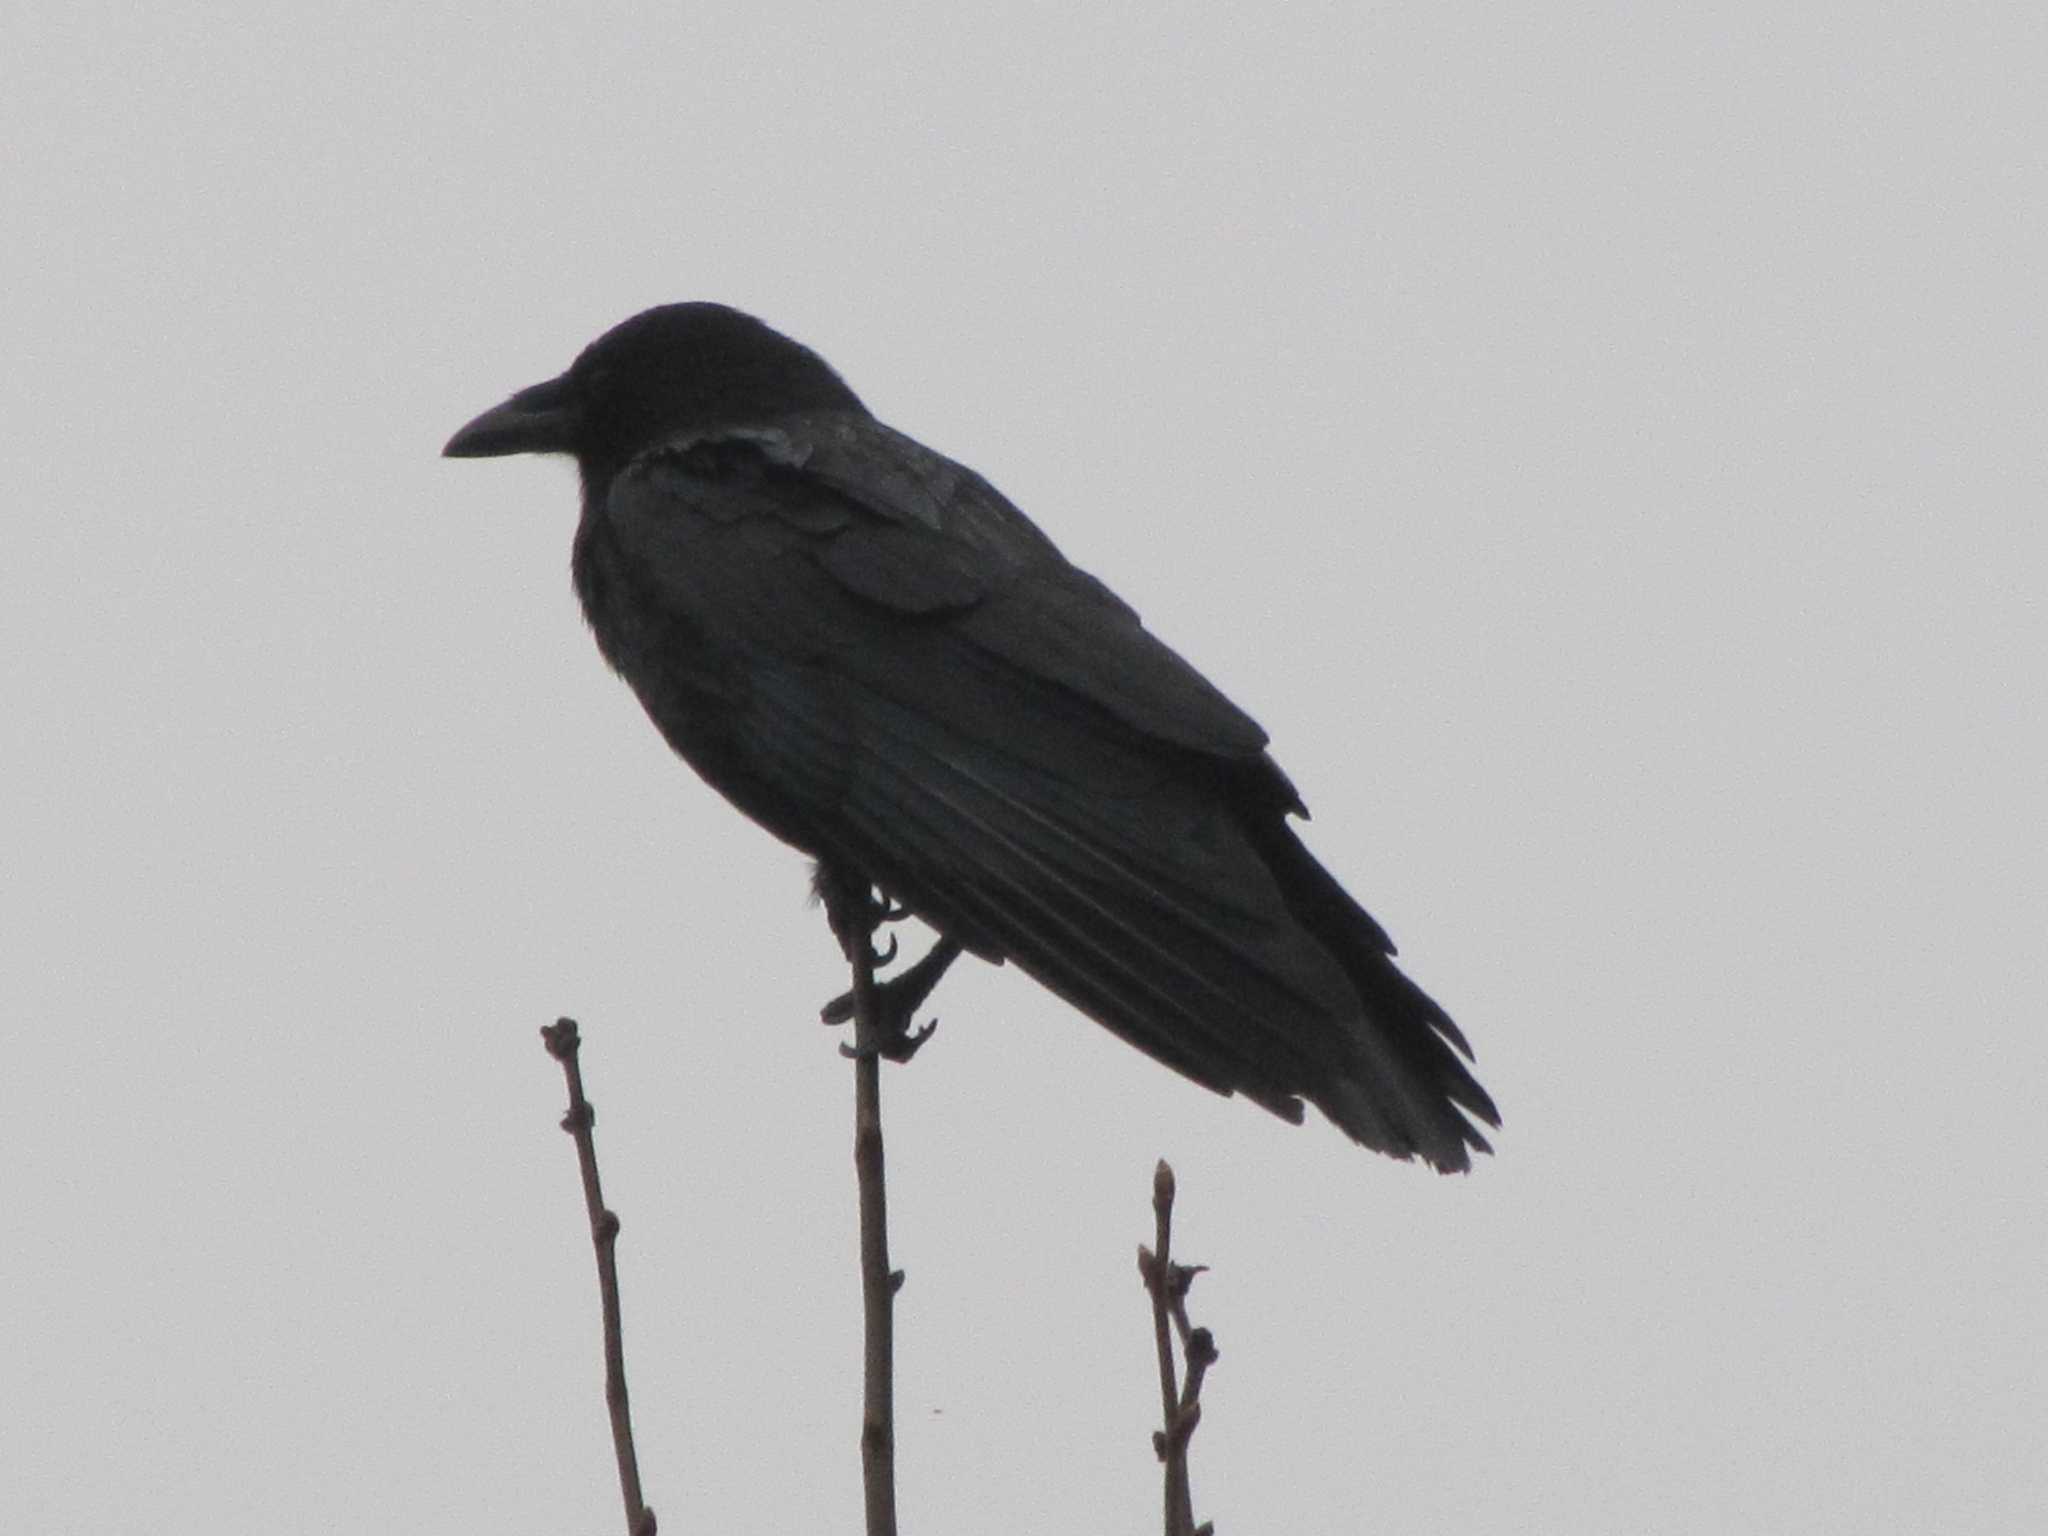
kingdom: Animalia
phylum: Chordata
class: Aves
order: Passeriformes
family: Corvidae
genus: Corvus
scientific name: Corvus brachyrhynchos
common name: American crow
